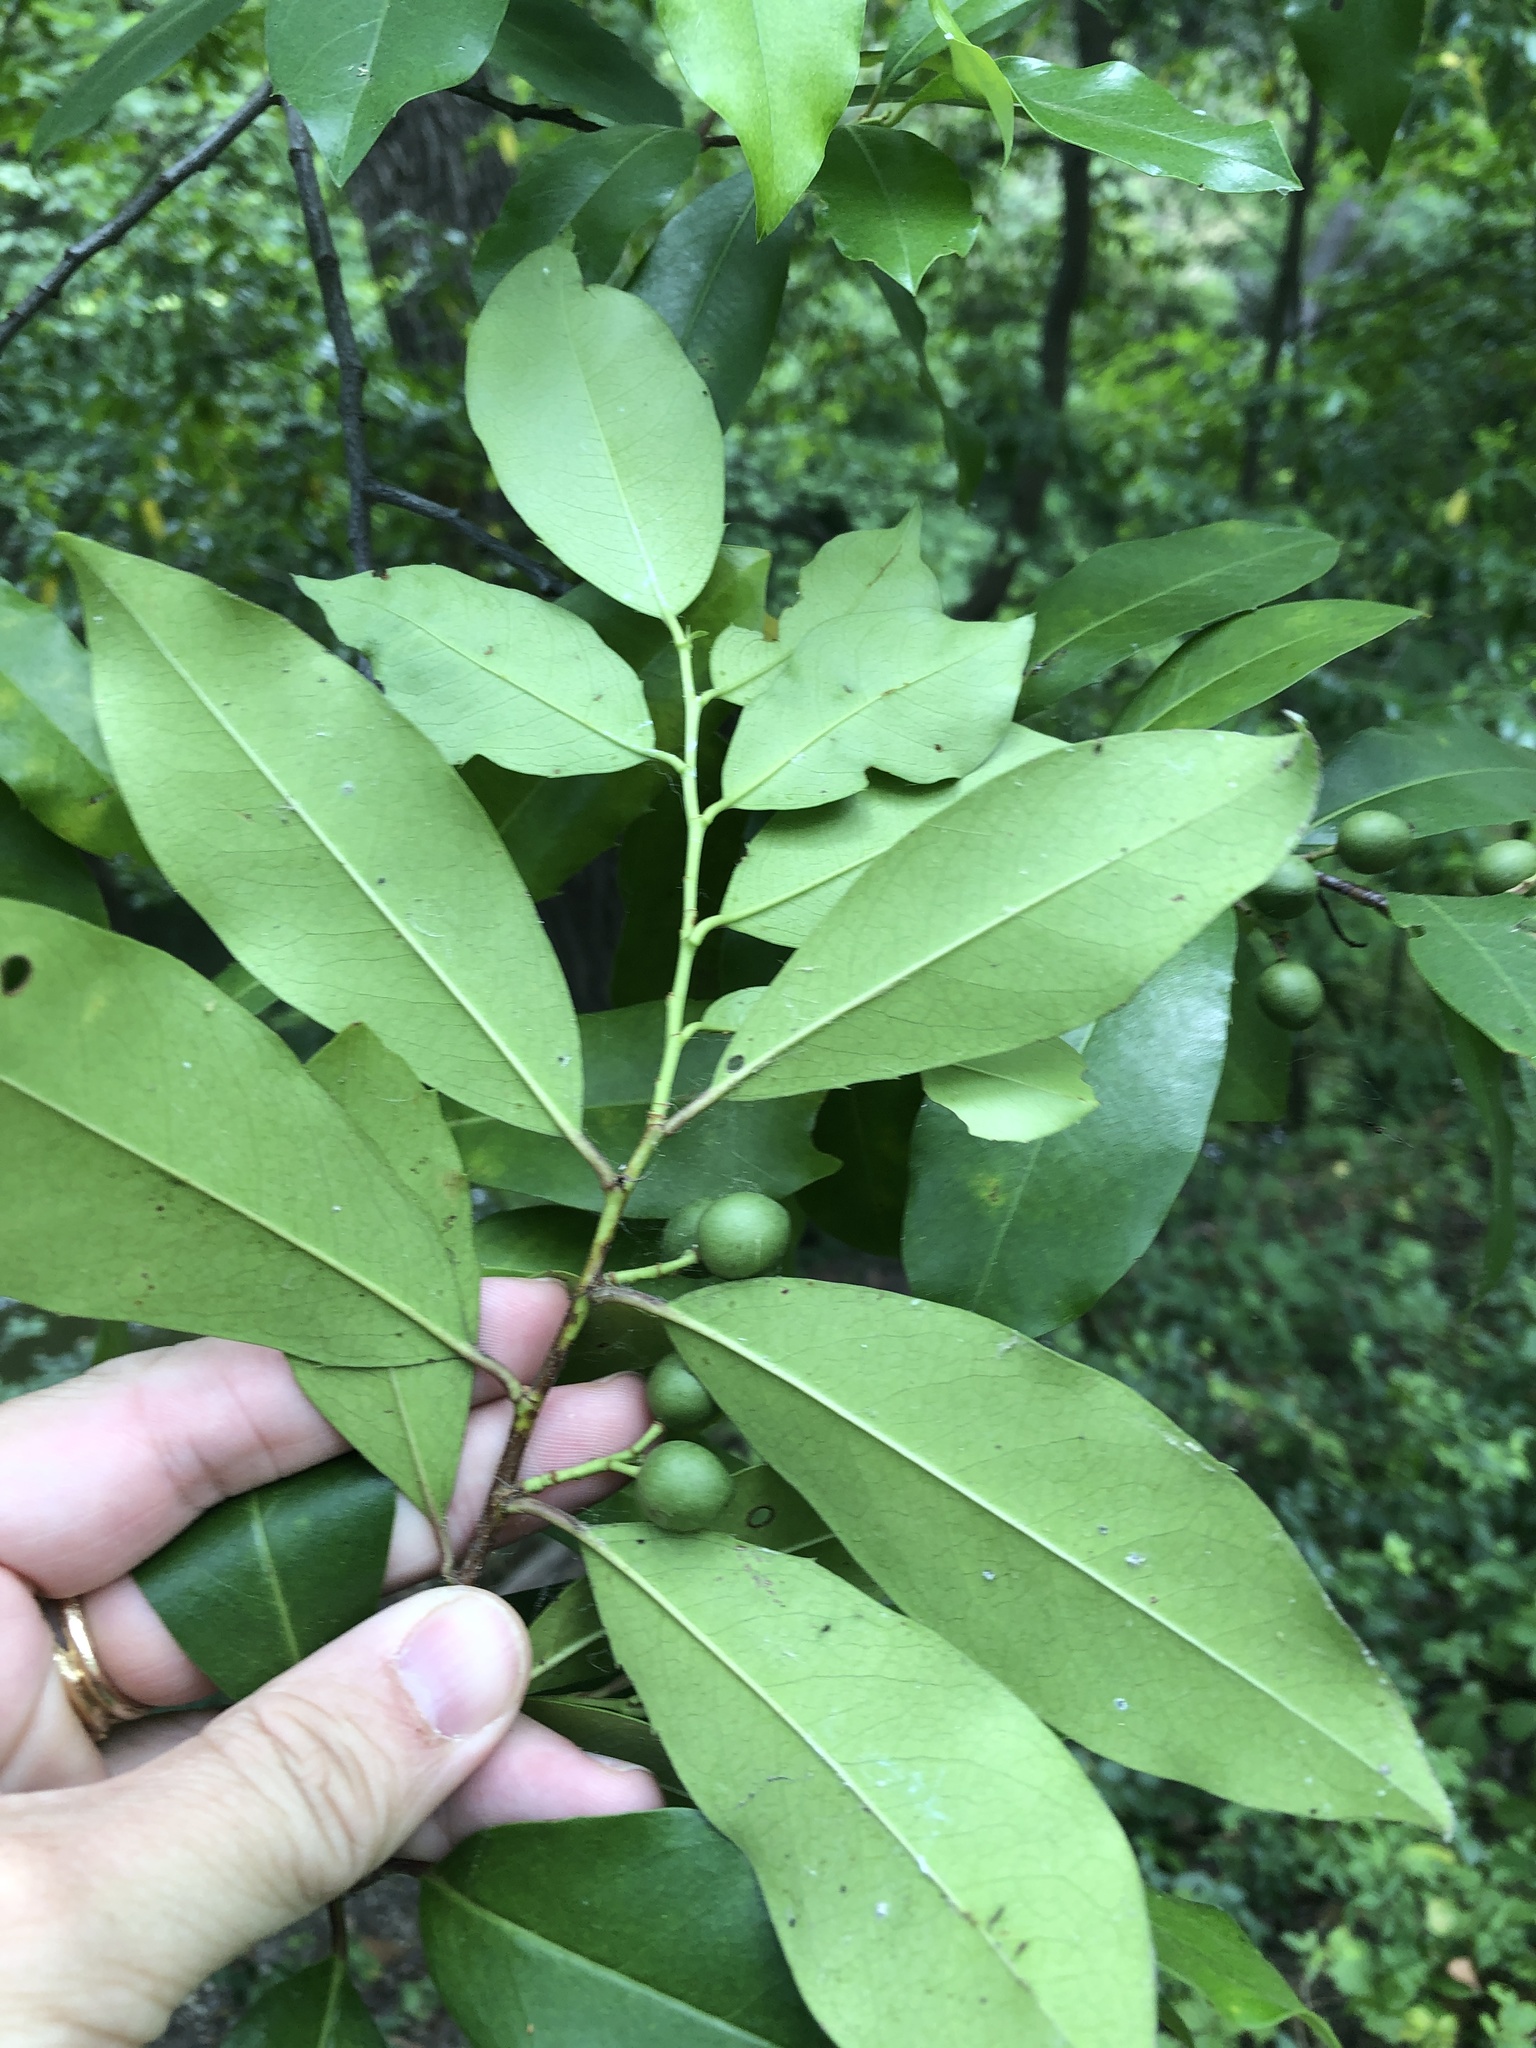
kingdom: Plantae
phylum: Tracheophyta
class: Magnoliopsida
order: Rosales
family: Rosaceae
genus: Prunus
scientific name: Prunus caroliniana
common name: Carolina laurel cherry
